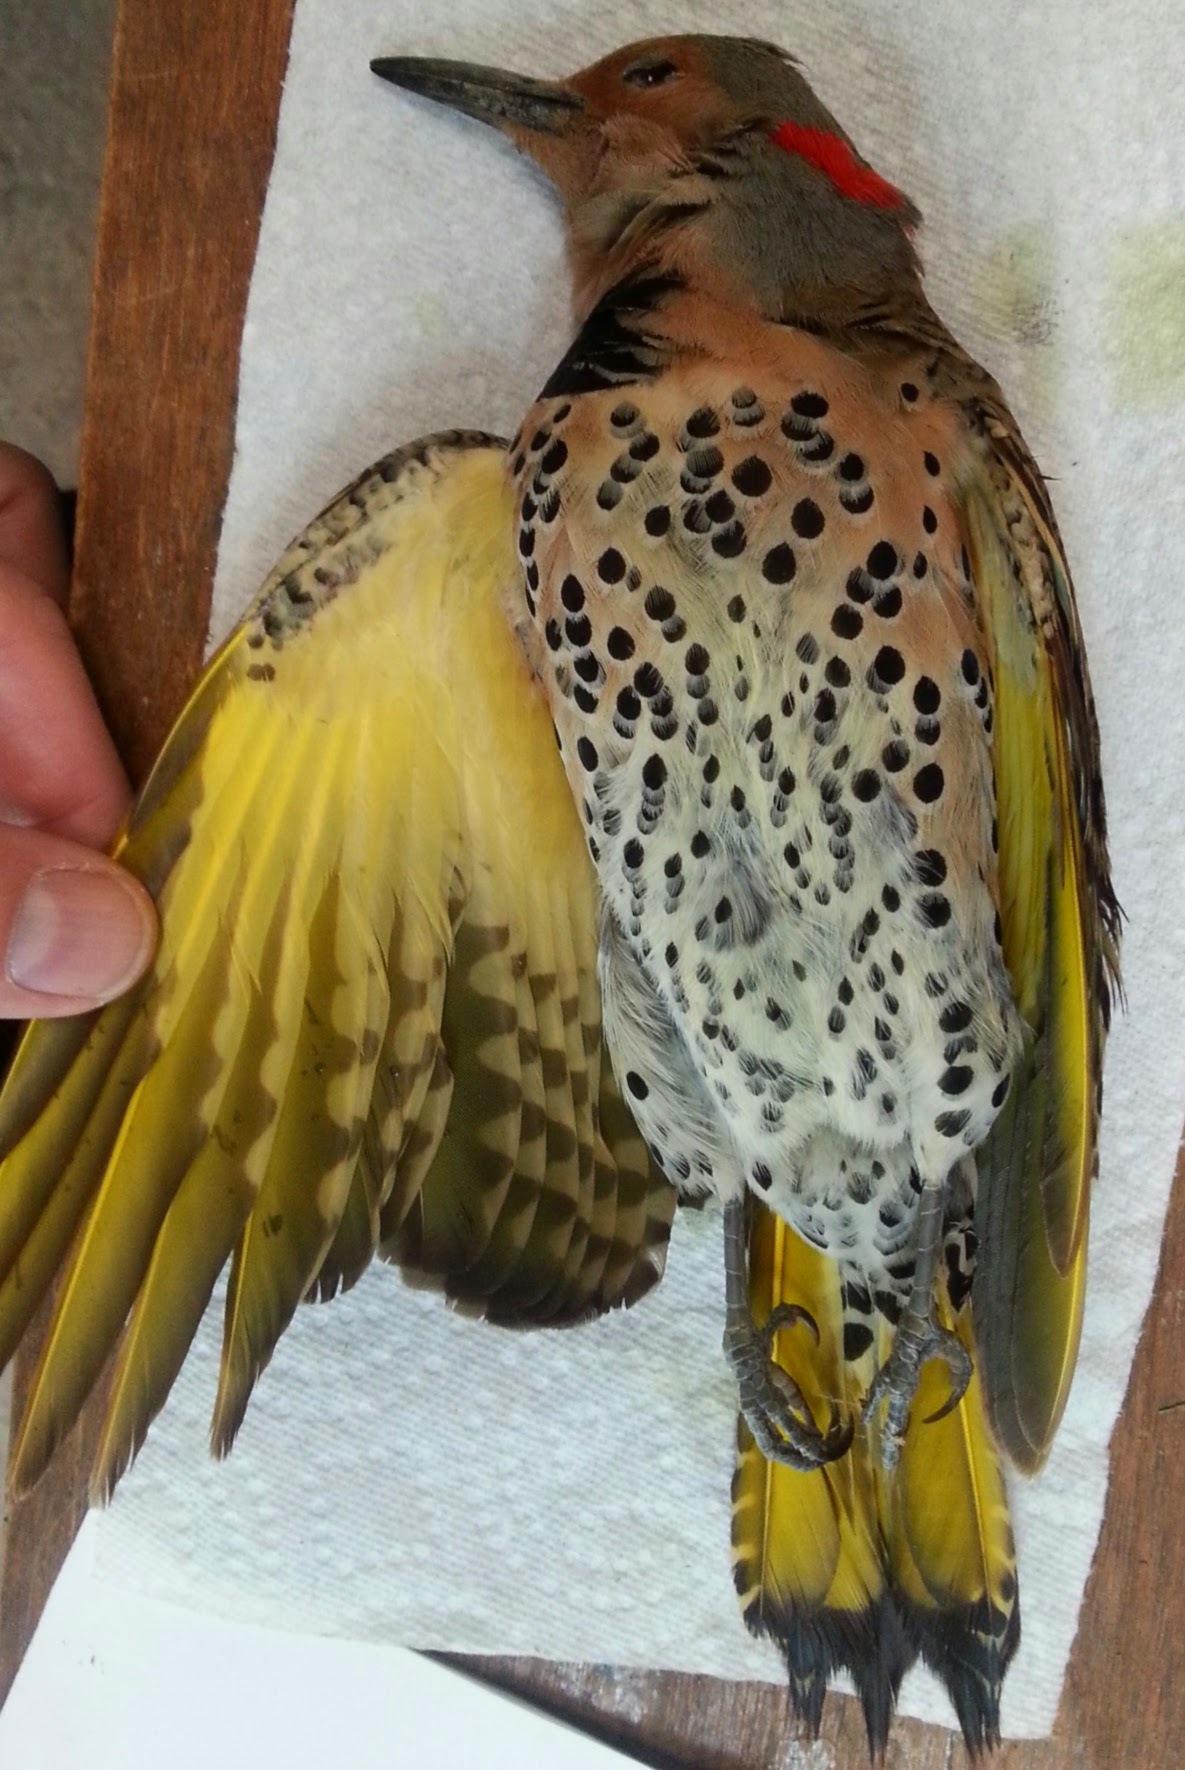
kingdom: Animalia
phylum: Chordata
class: Aves
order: Piciformes
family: Picidae
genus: Colaptes
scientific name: Colaptes auratus
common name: Northern flicker
